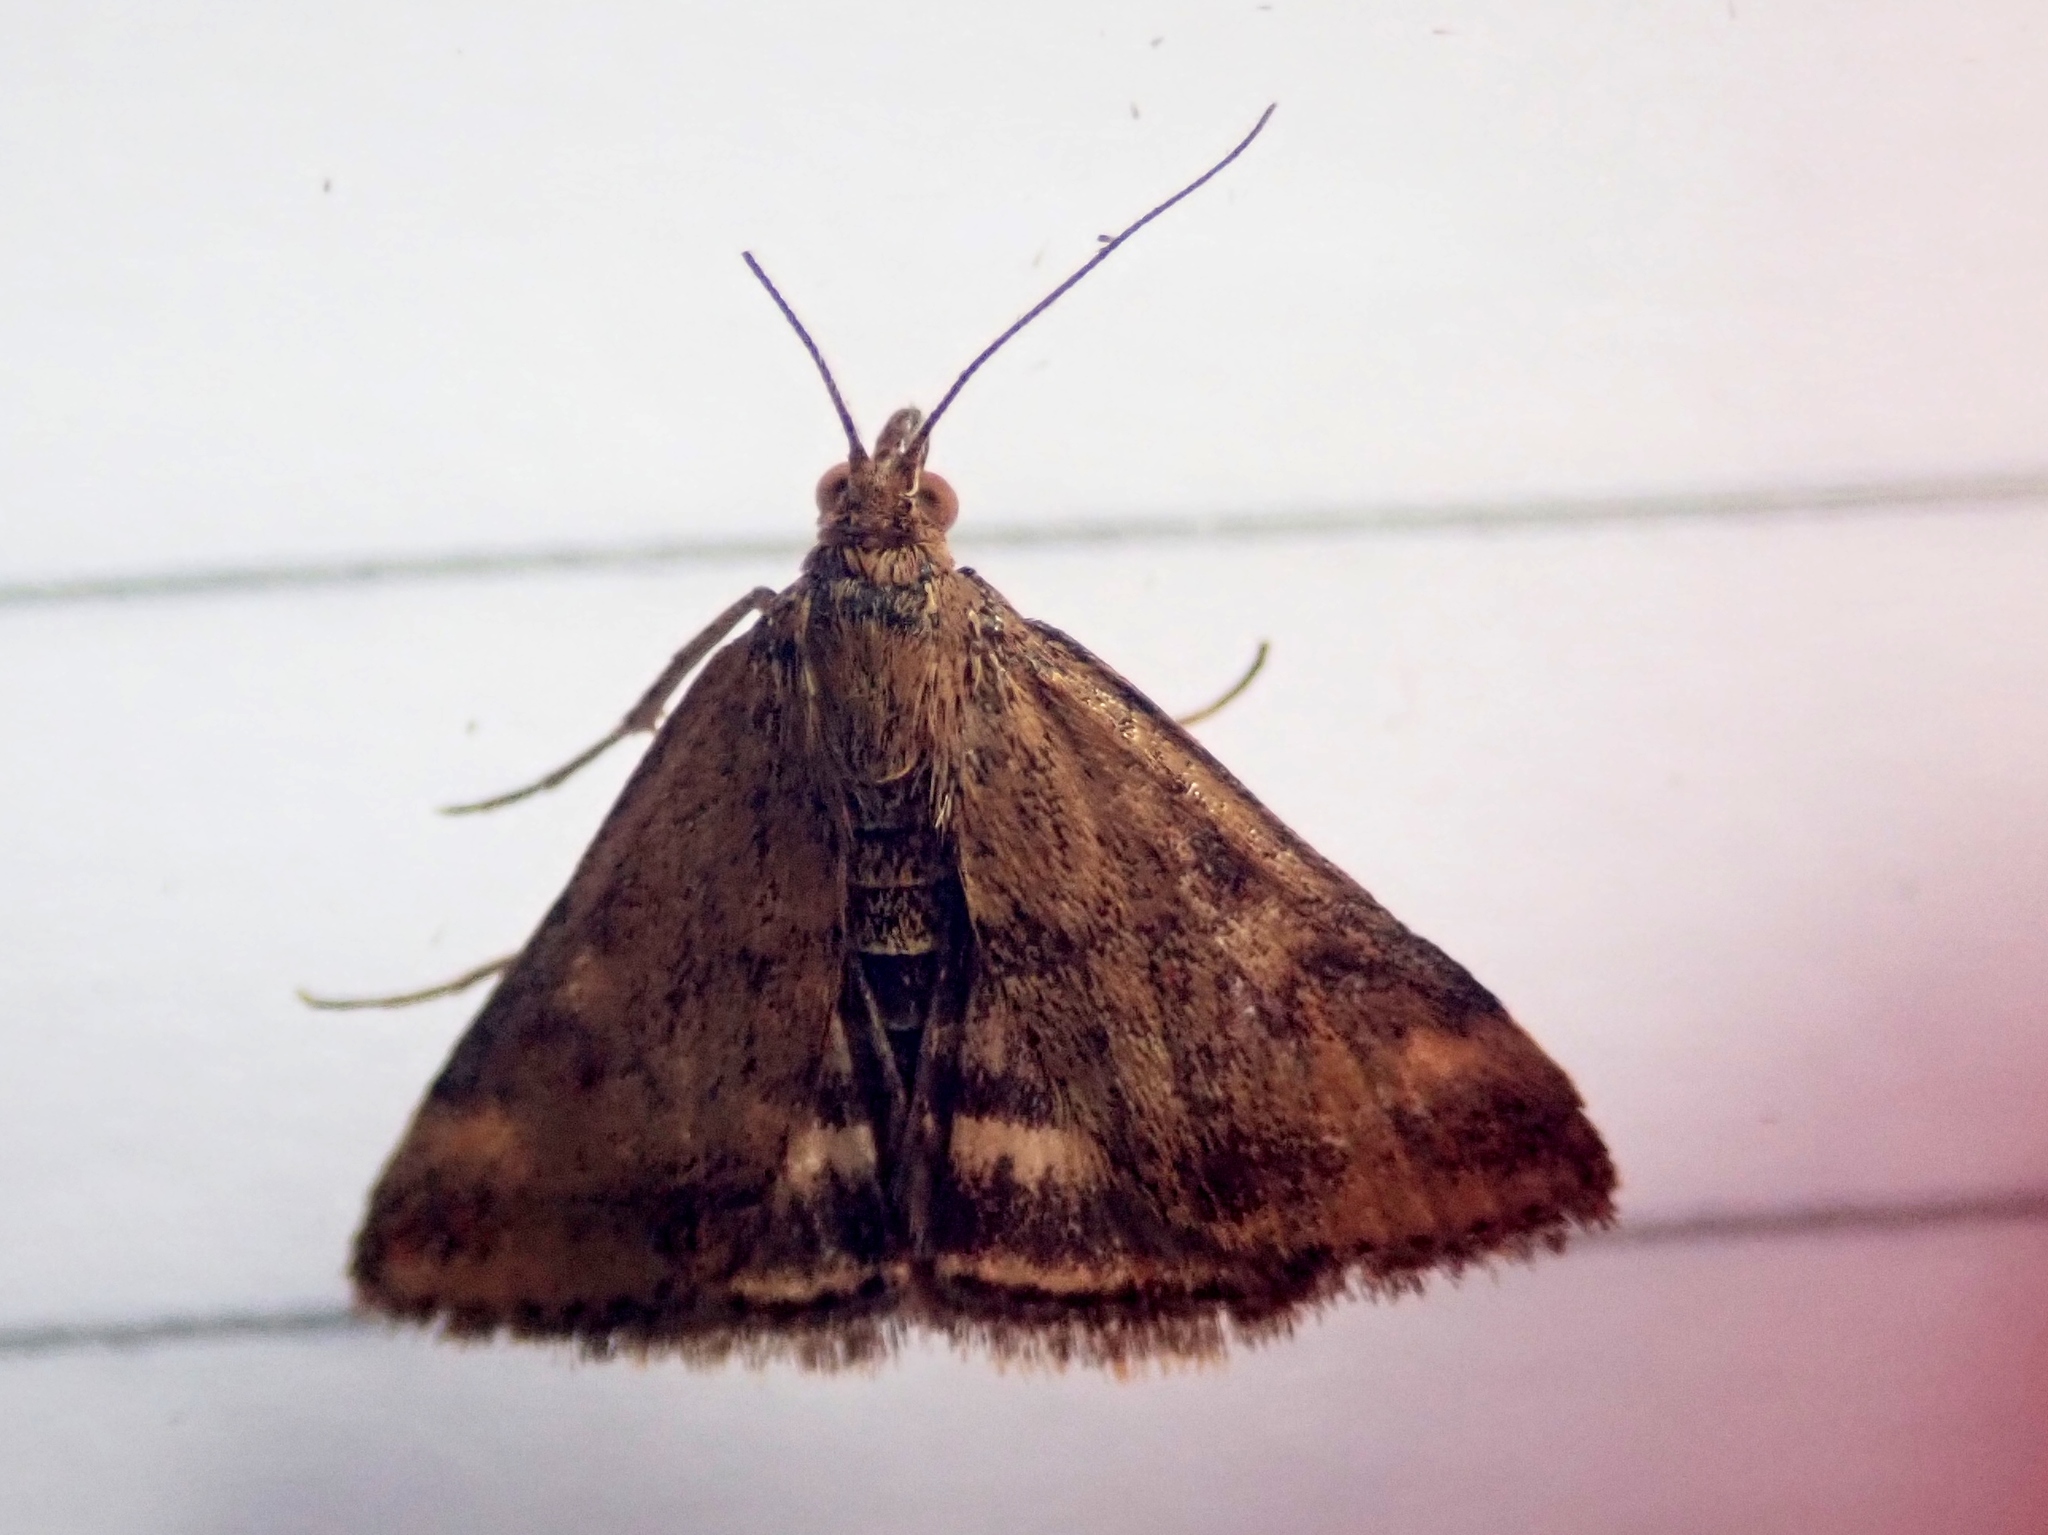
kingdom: Animalia
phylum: Arthropoda
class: Insecta
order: Lepidoptera
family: Crambidae
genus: Pyrausta
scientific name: Pyrausta despicata
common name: Straw-barred pearl
